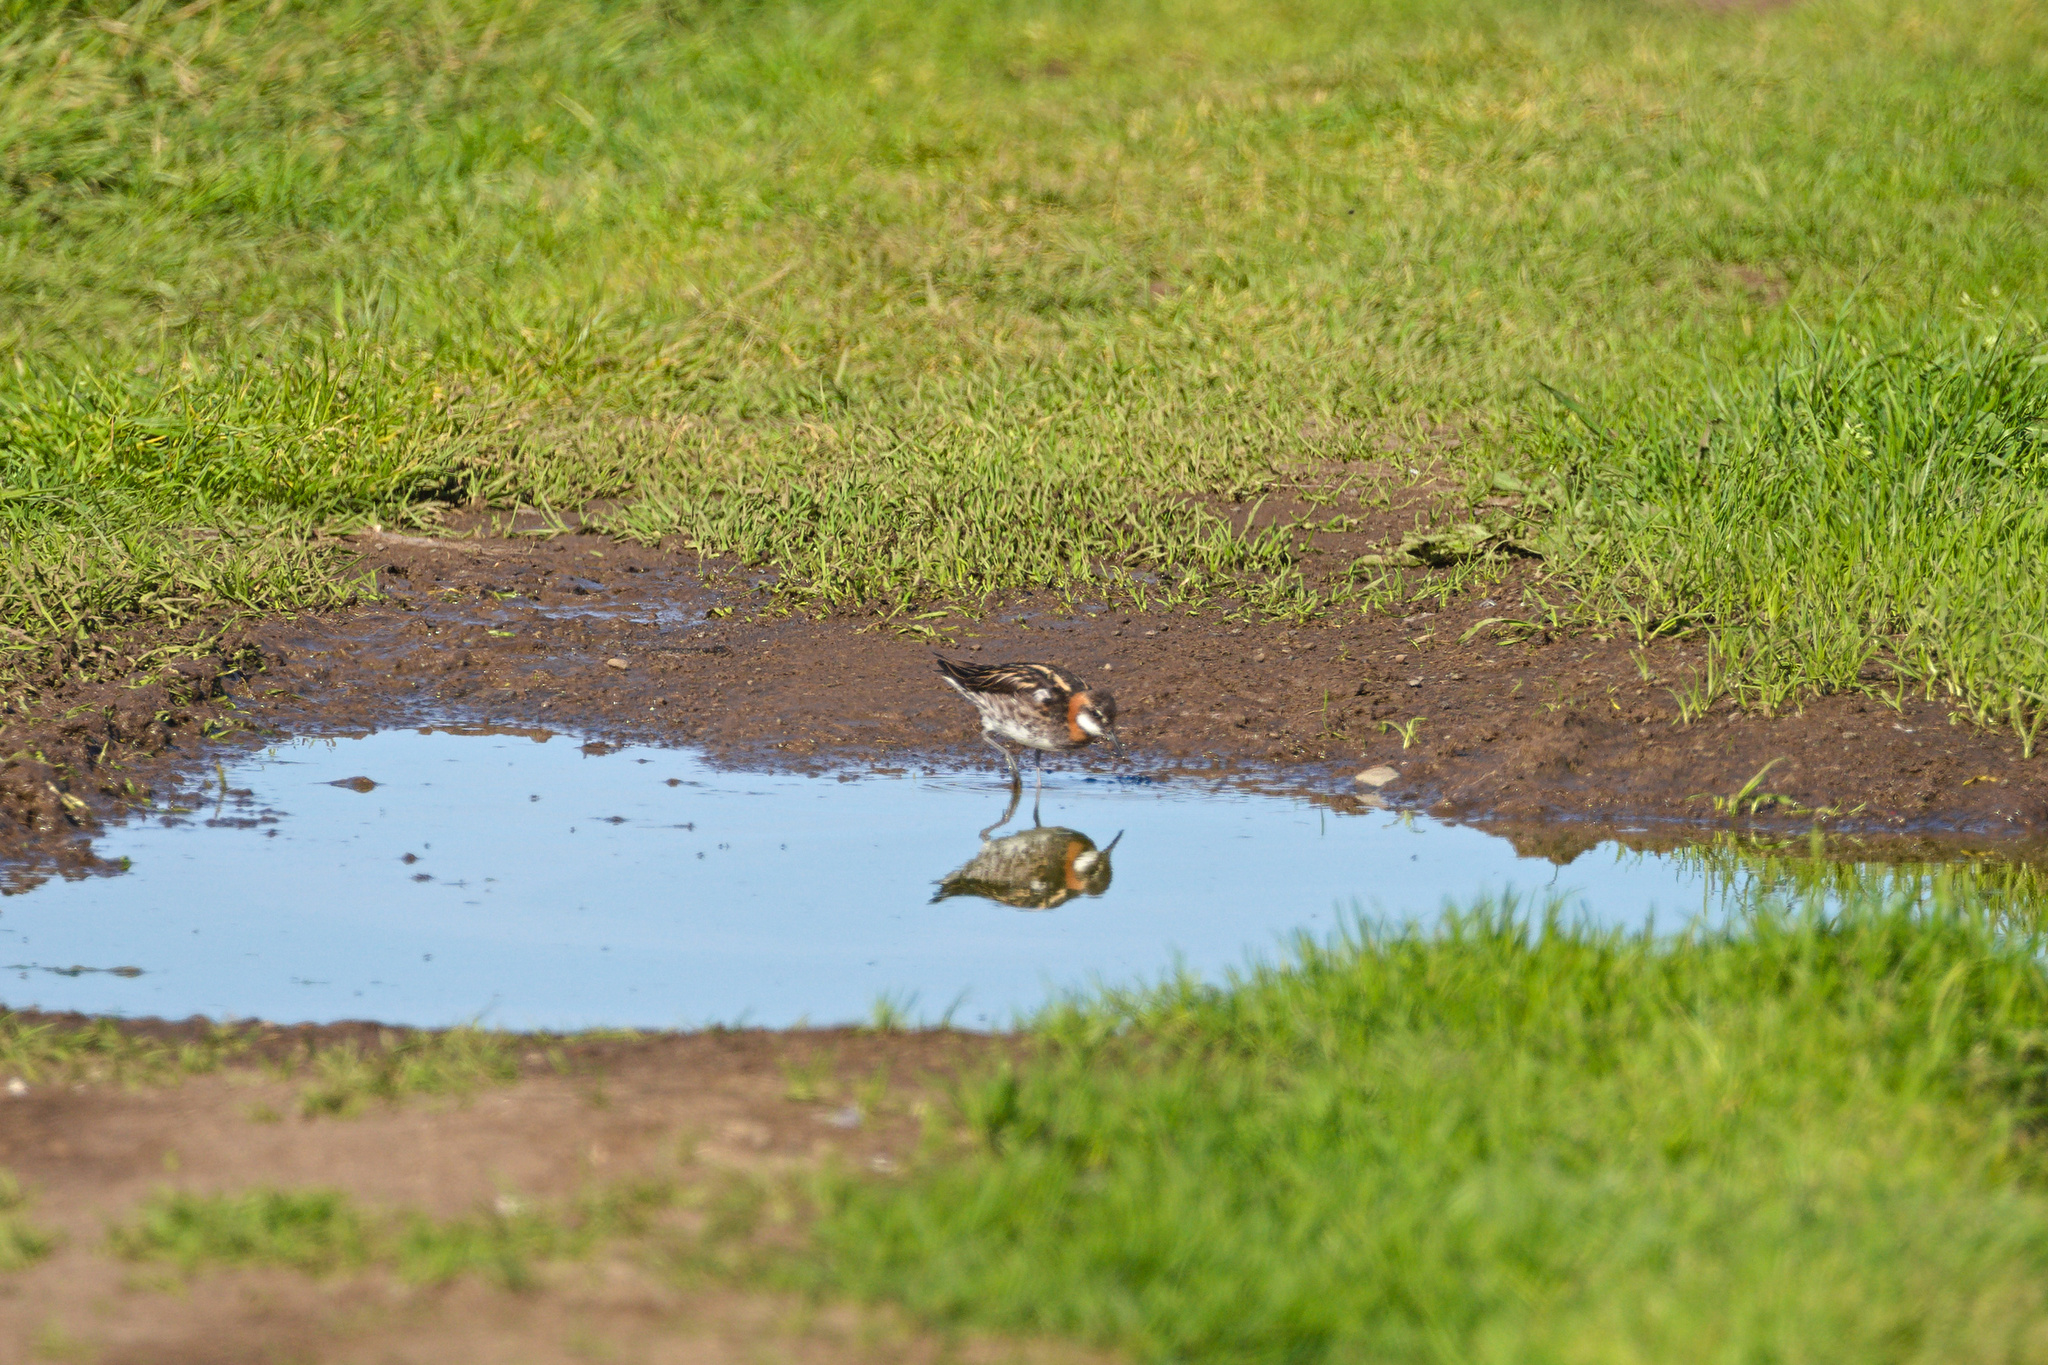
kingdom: Animalia
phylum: Chordata
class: Aves
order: Charadriiformes
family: Scolopacidae
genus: Phalaropus
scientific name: Phalaropus lobatus
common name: Red-necked phalarope
